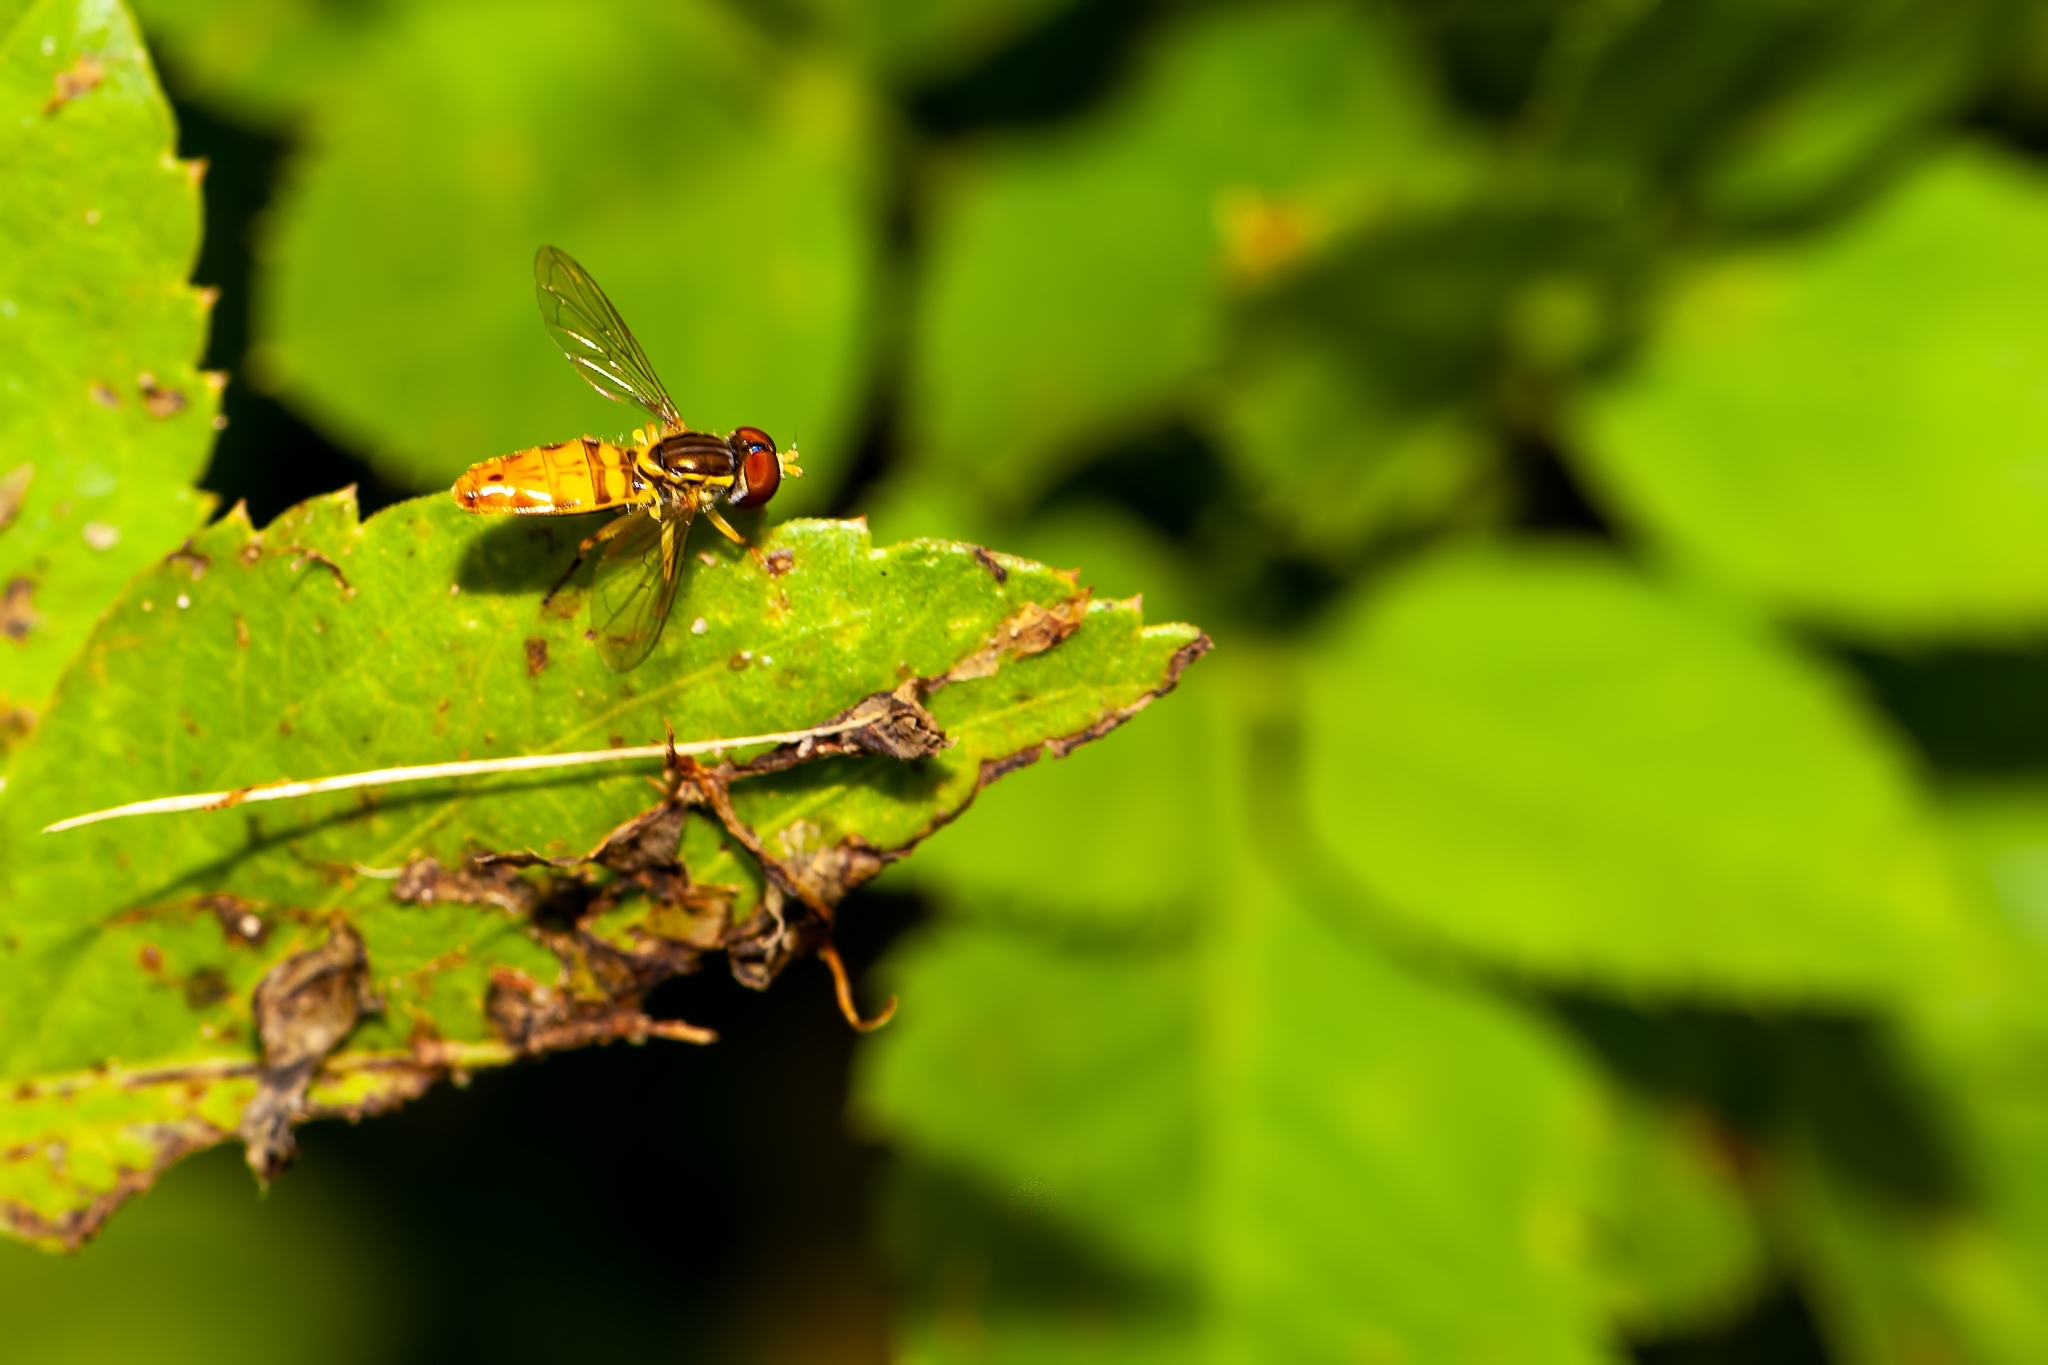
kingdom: Animalia
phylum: Arthropoda
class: Insecta
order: Diptera
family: Syrphidae
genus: Toxomerus
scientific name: Toxomerus floralis
